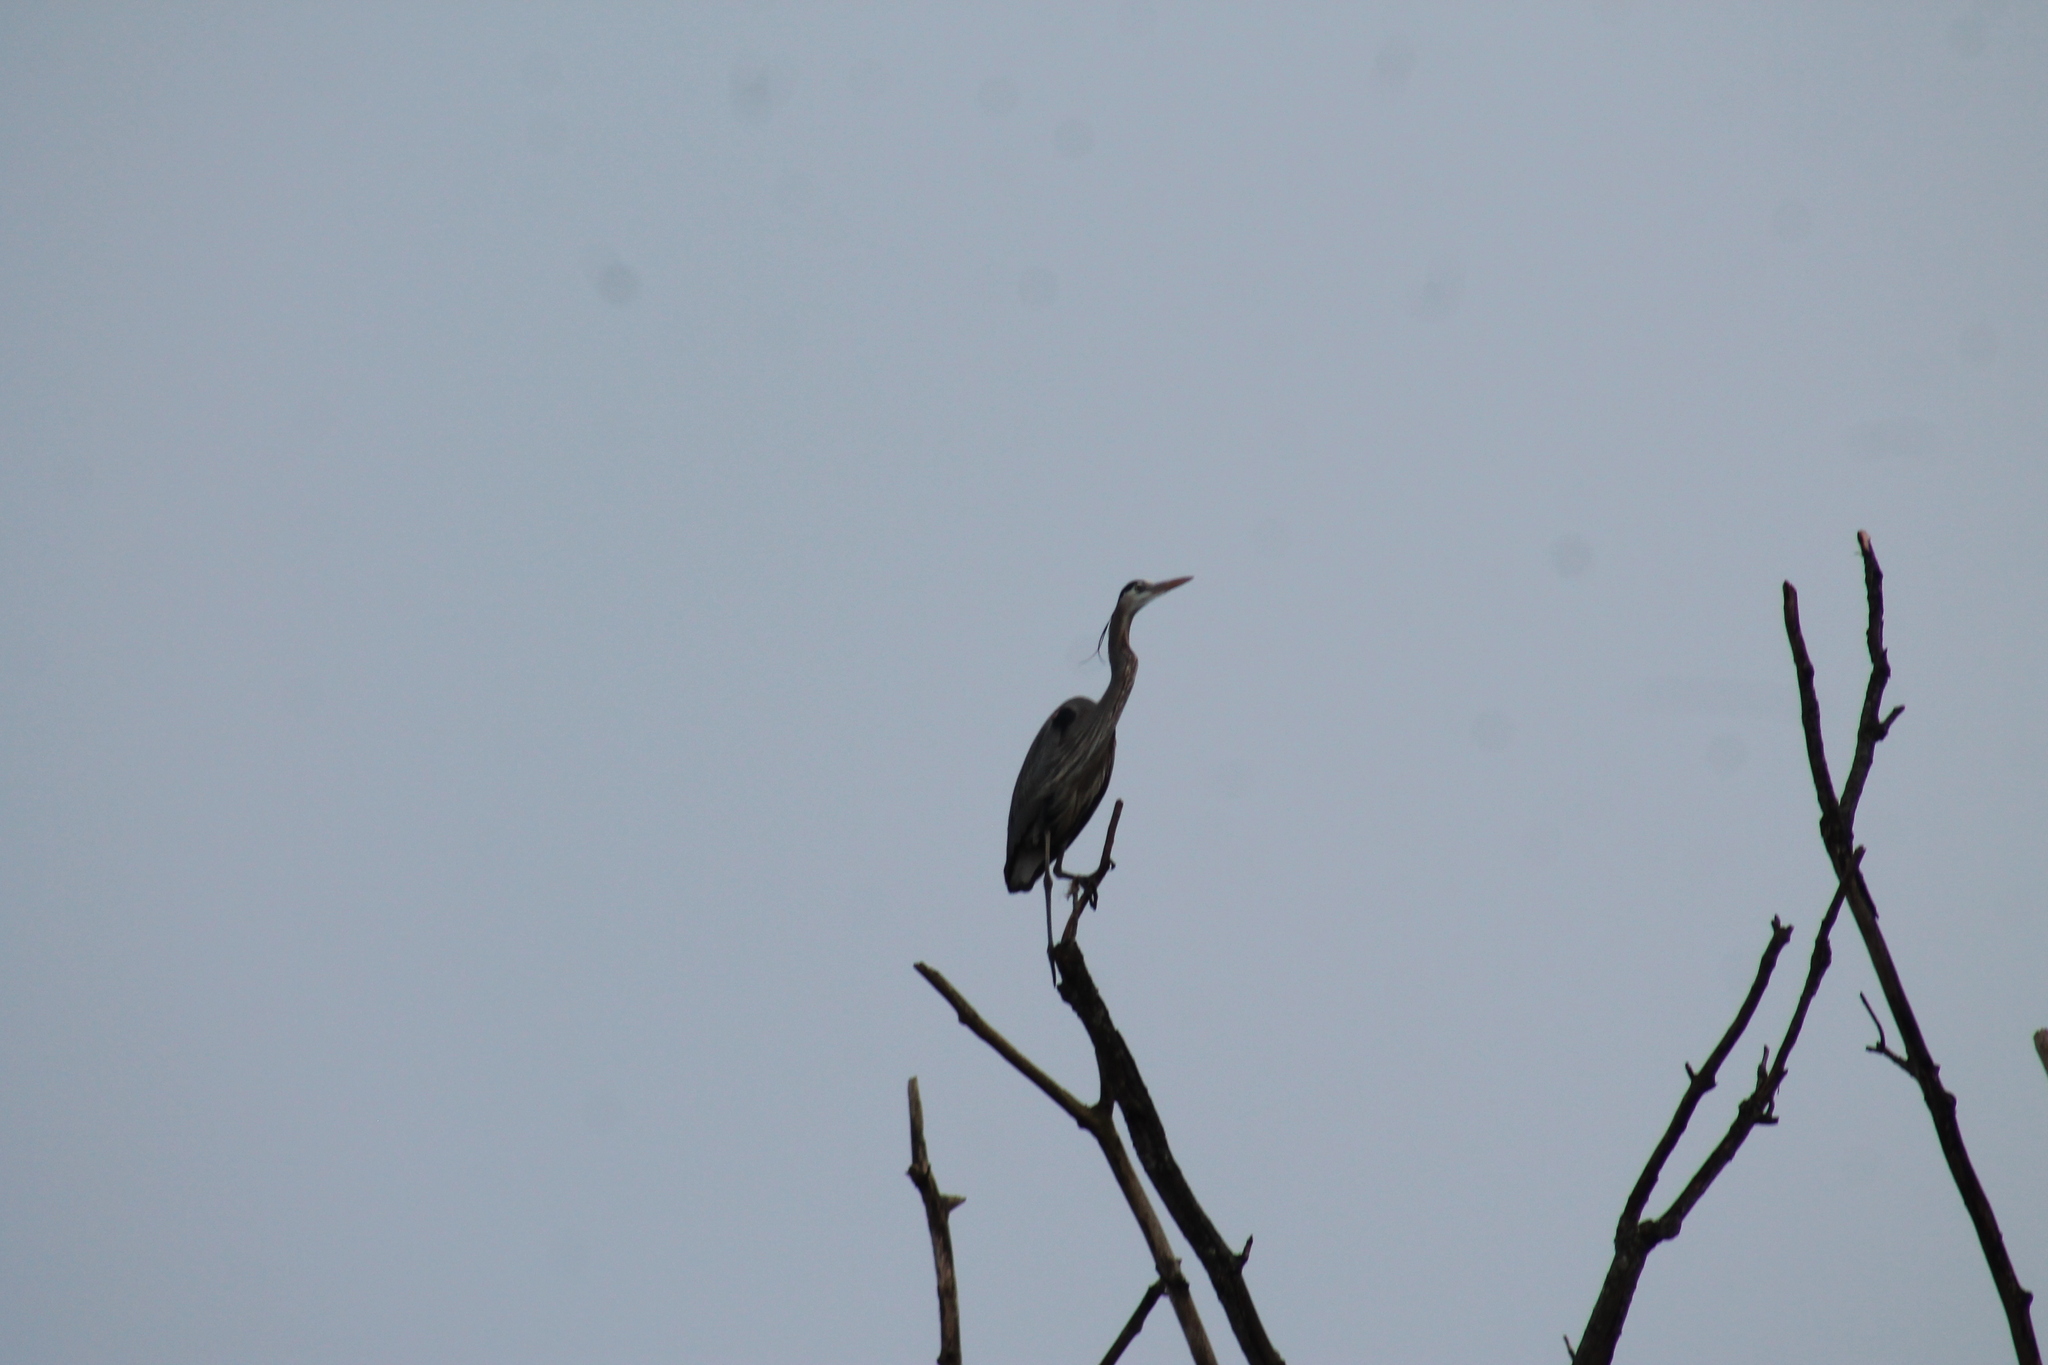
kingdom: Animalia
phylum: Chordata
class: Aves
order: Pelecaniformes
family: Ardeidae
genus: Ardea
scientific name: Ardea herodias
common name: Great blue heron
